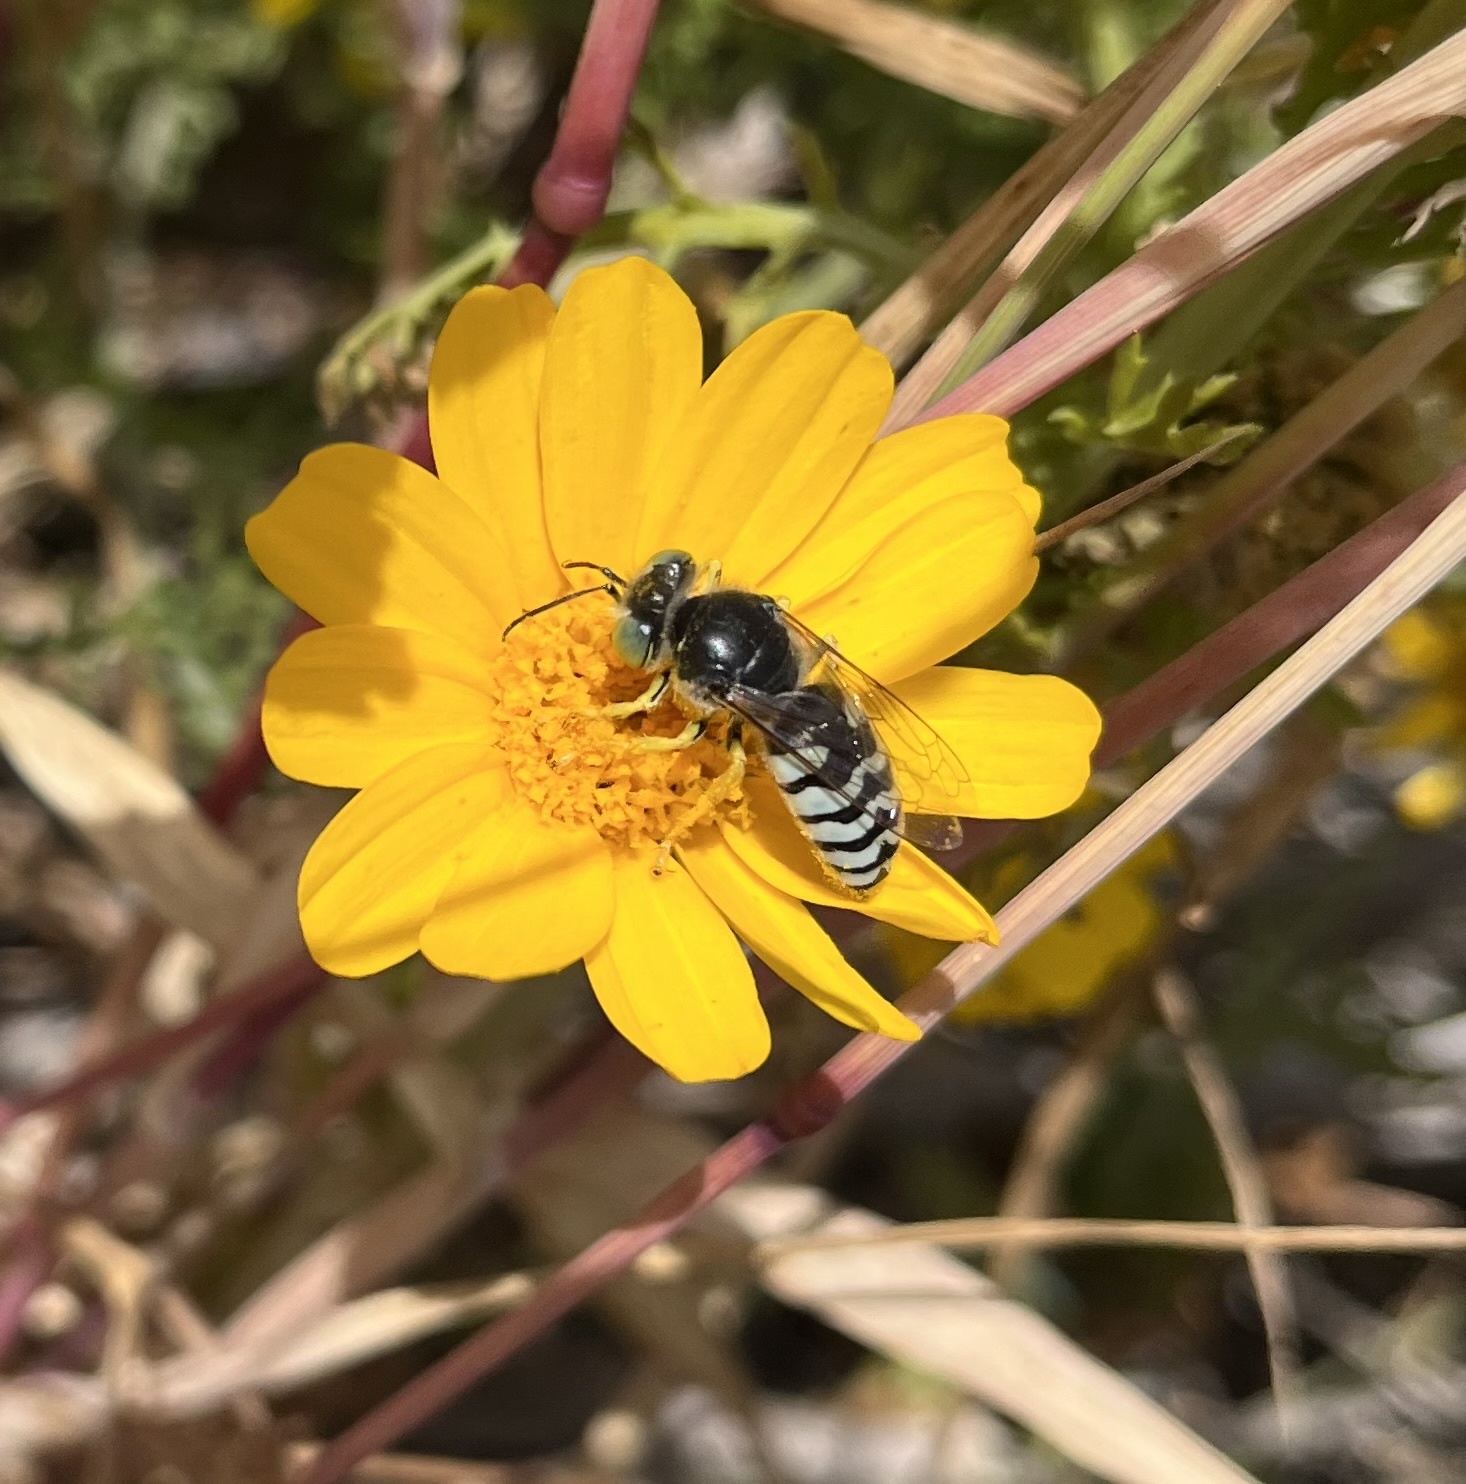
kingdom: Animalia
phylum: Arthropoda
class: Insecta
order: Hymenoptera
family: Crabronidae
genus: Bembix
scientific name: Bembix americana
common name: American sand wasp
